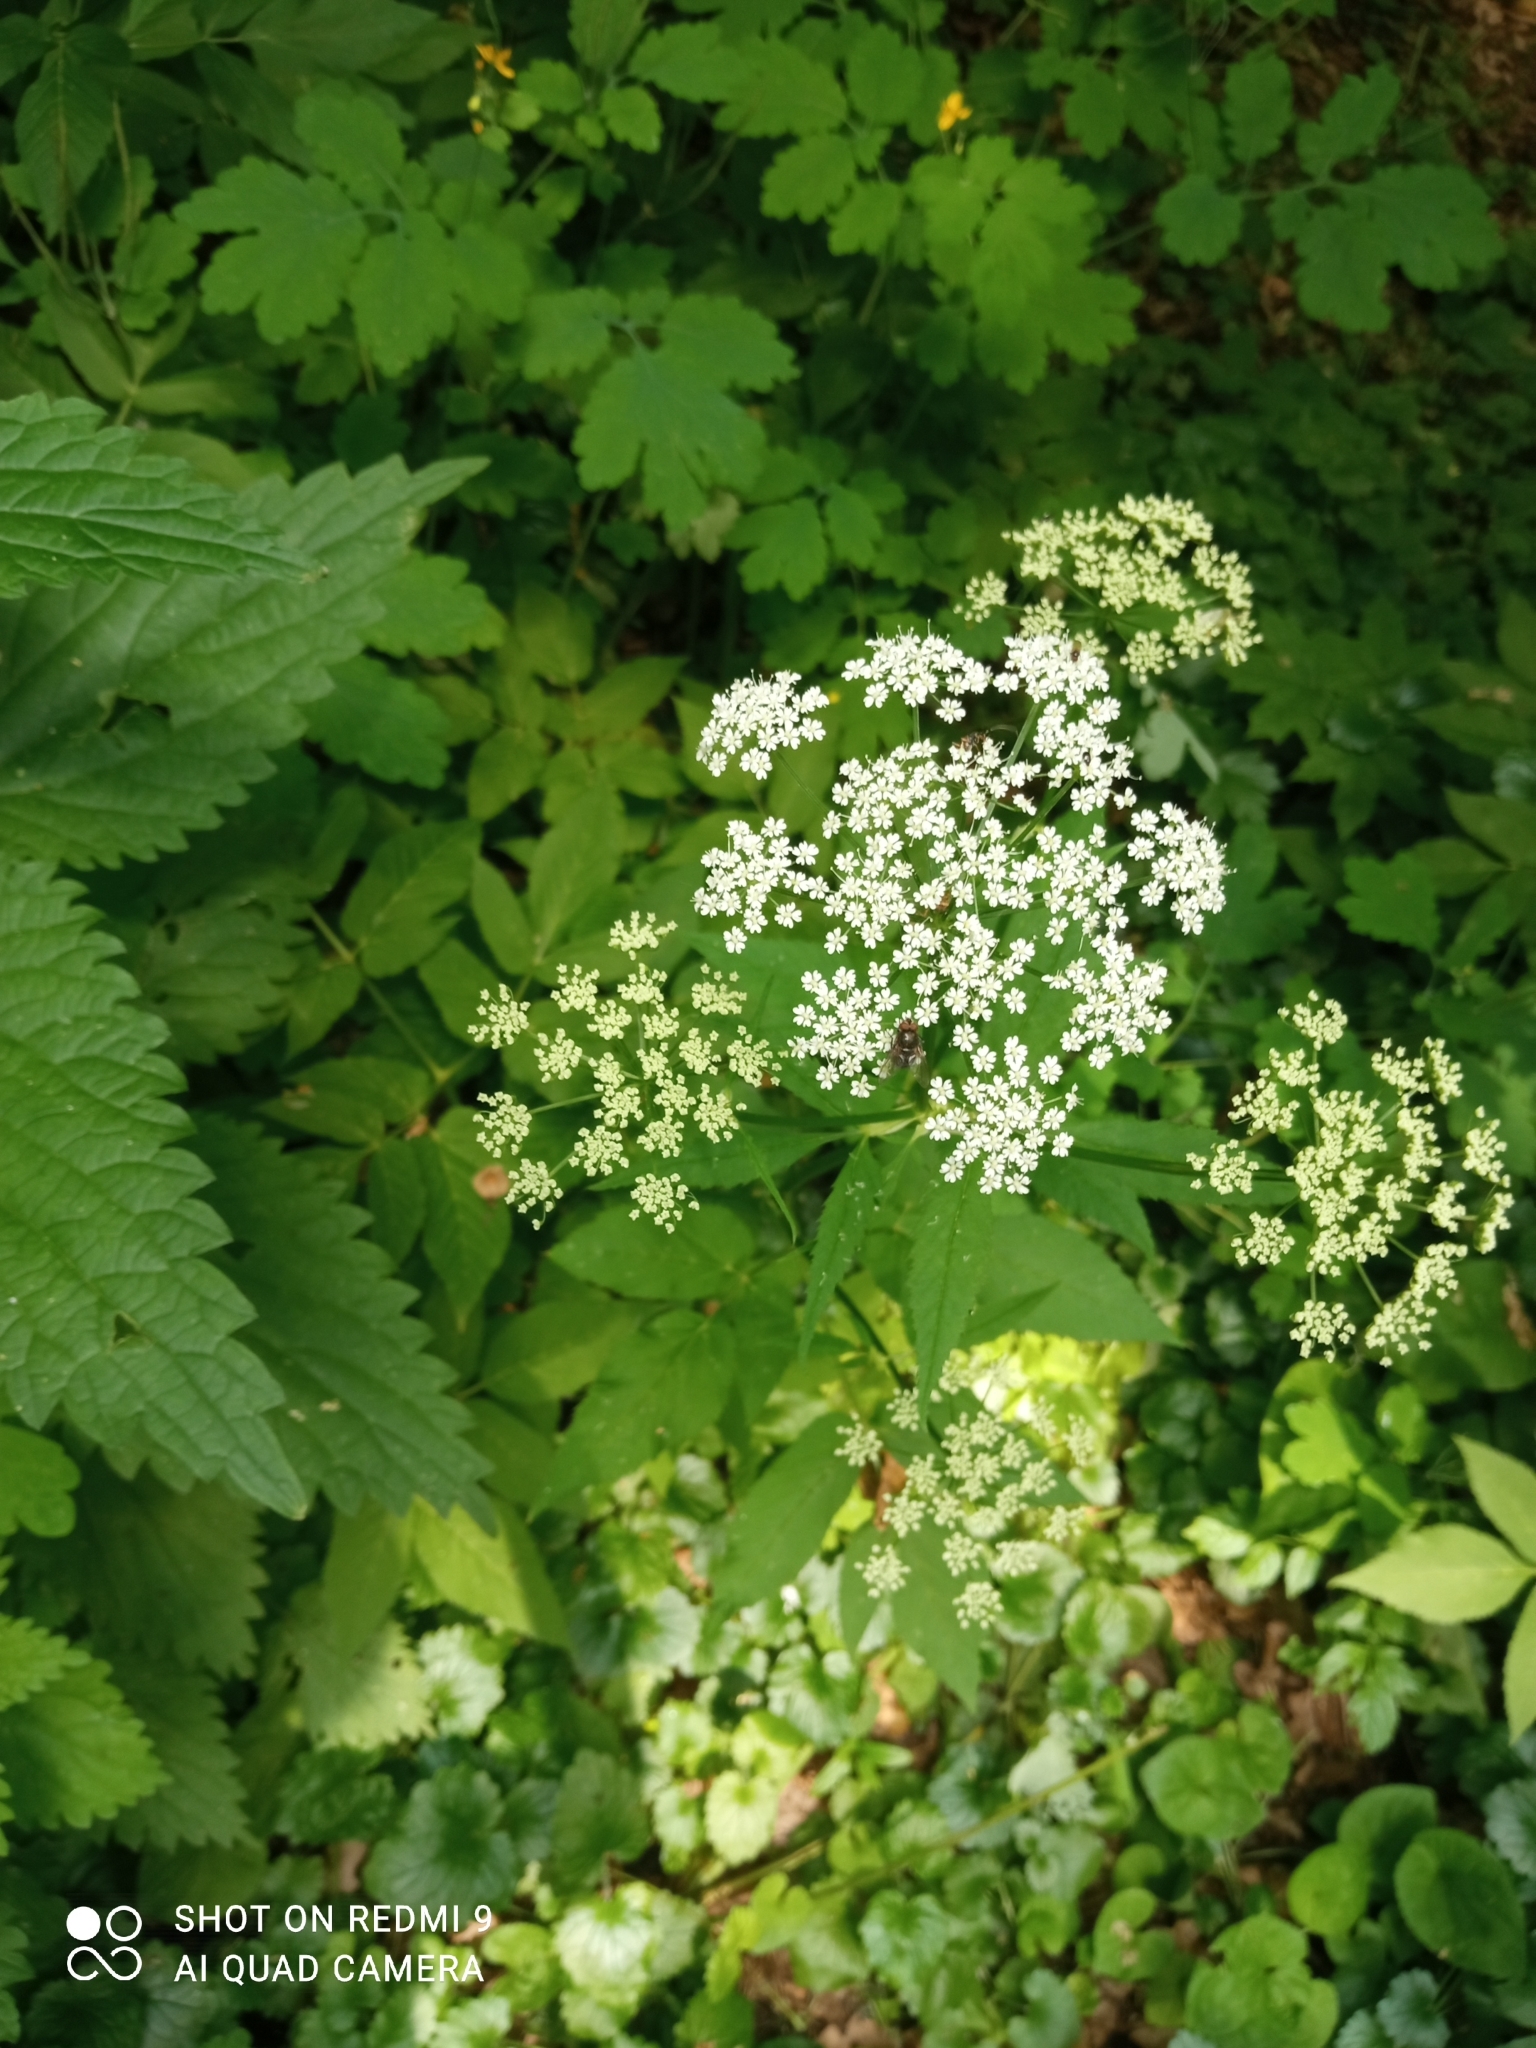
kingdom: Plantae
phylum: Tracheophyta
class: Magnoliopsida
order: Apiales
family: Apiaceae
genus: Aegopodium
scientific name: Aegopodium podagraria
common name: Ground-elder
